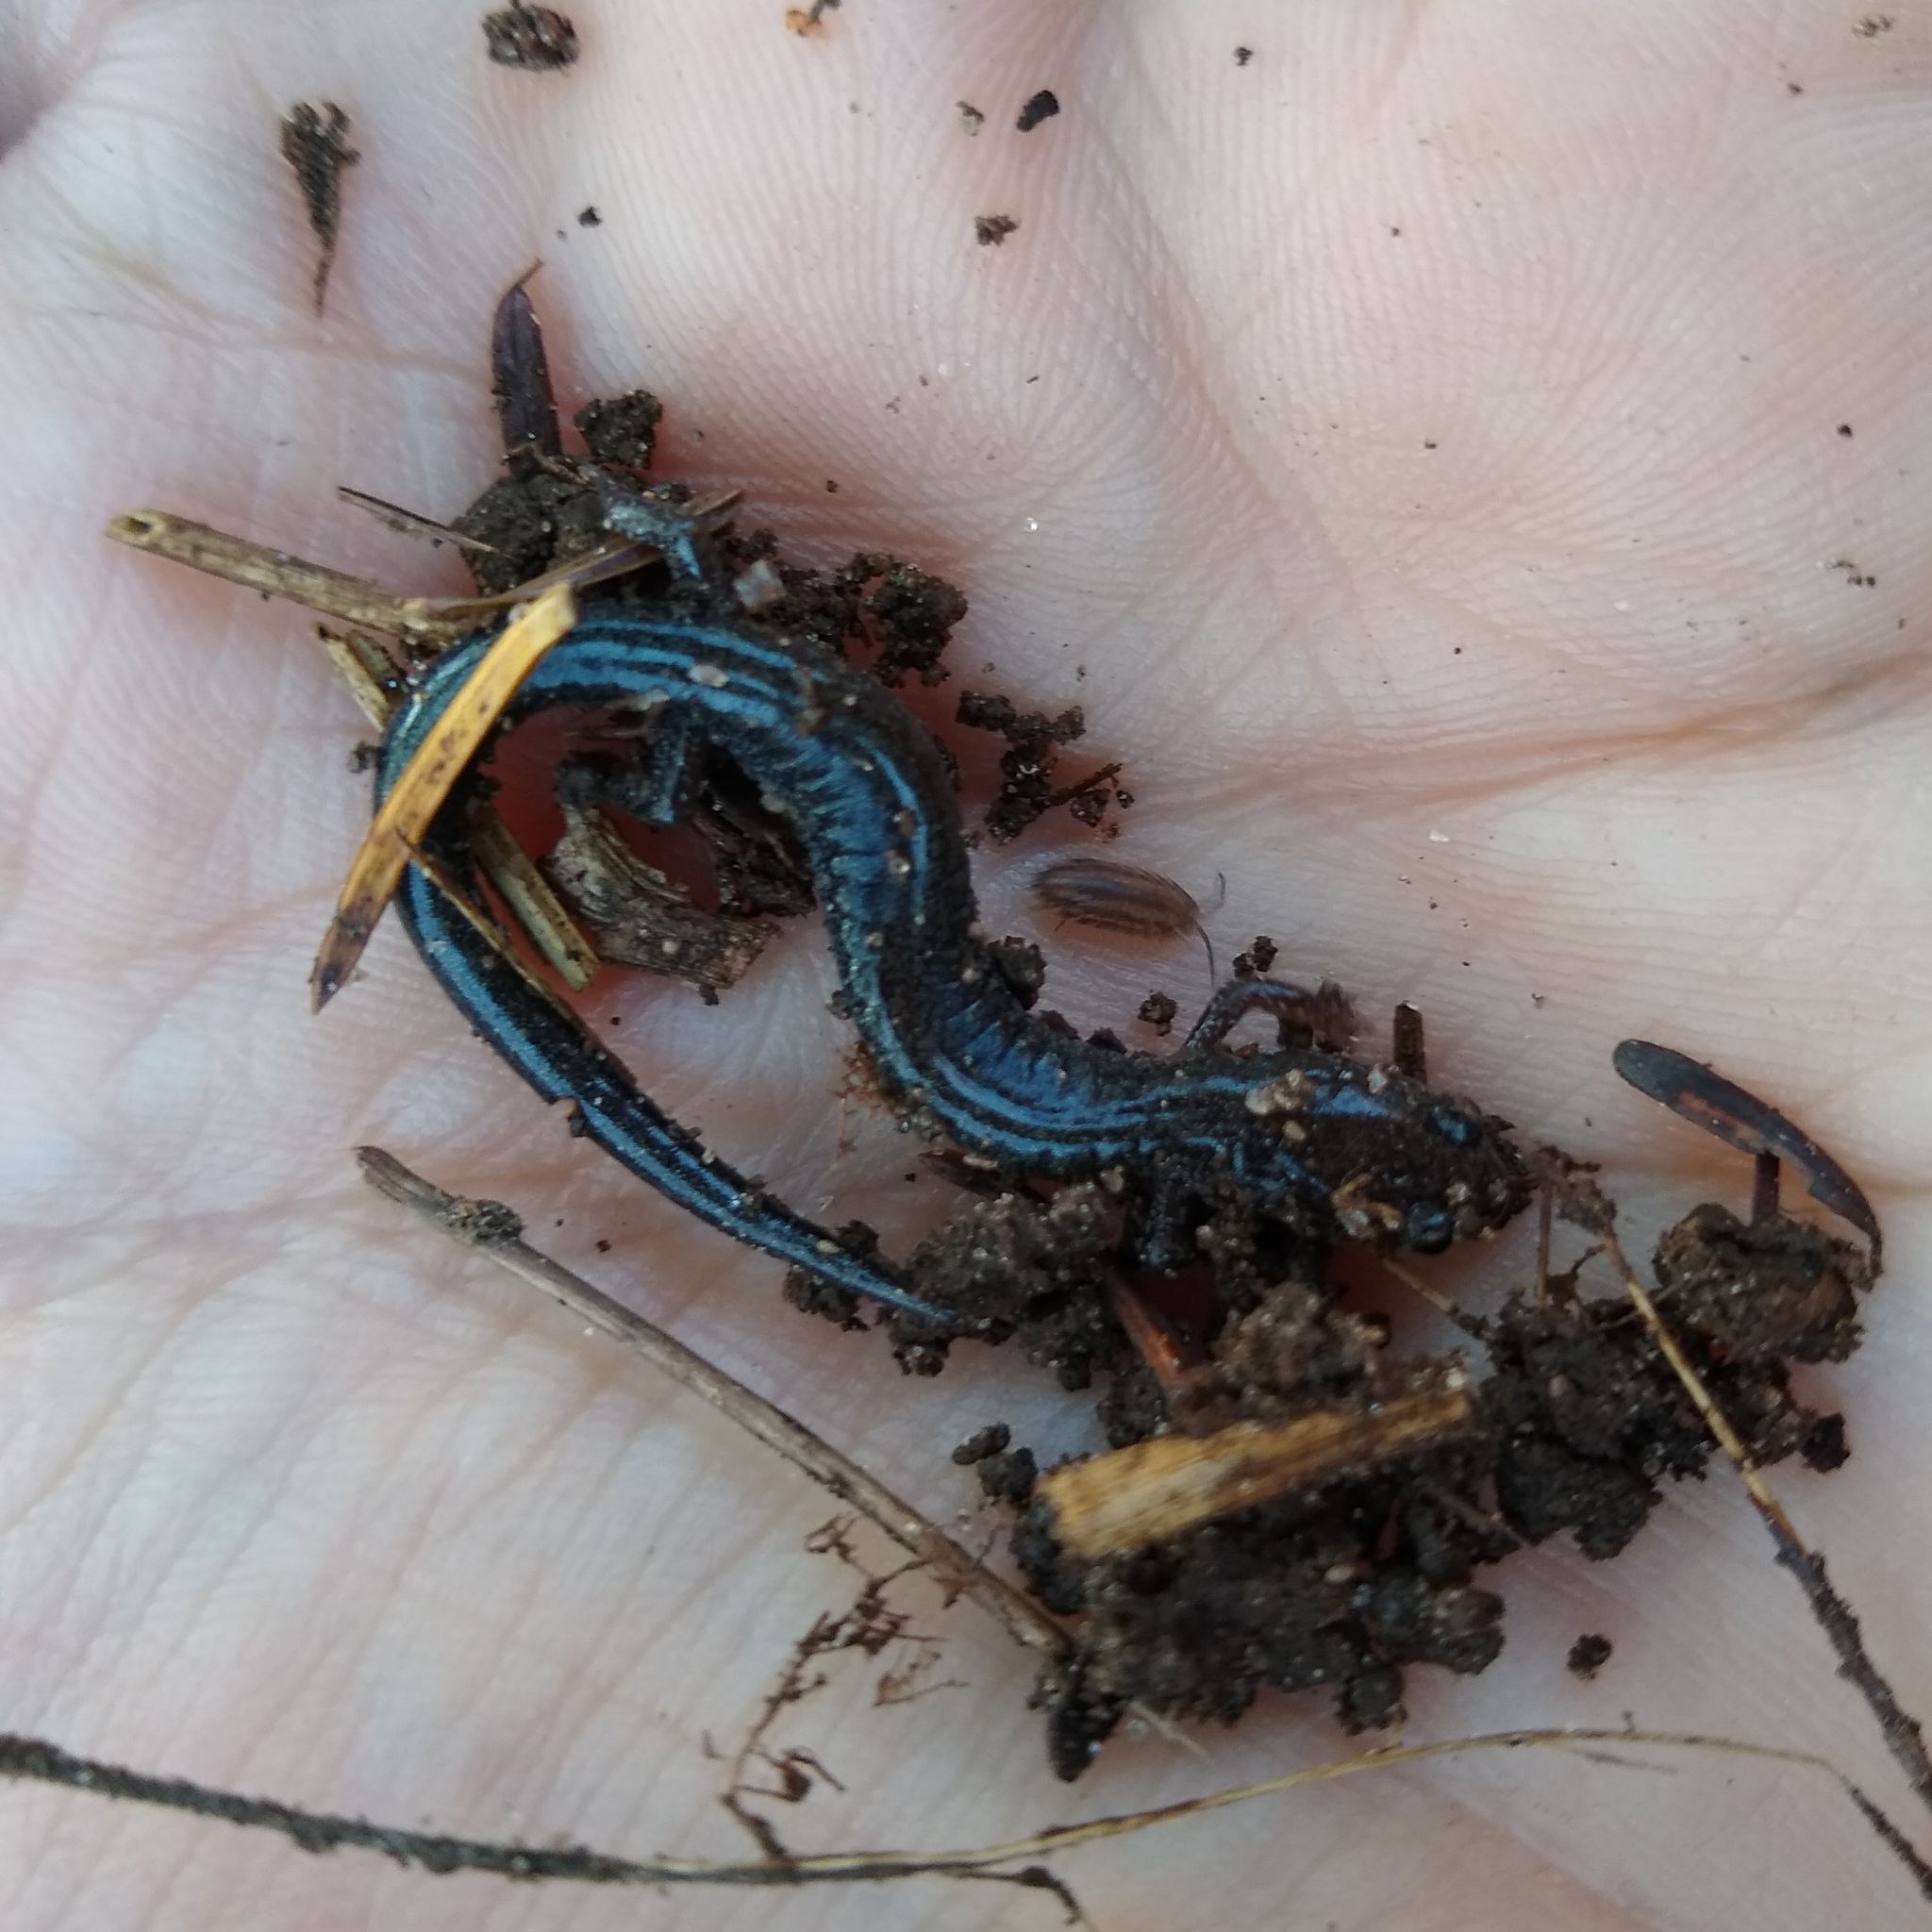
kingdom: Animalia
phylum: Chordata
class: Amphibia
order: Caudata
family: Plethodontidae
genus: Plethodon
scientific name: Plethodon cinereus
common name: Redback salamander
